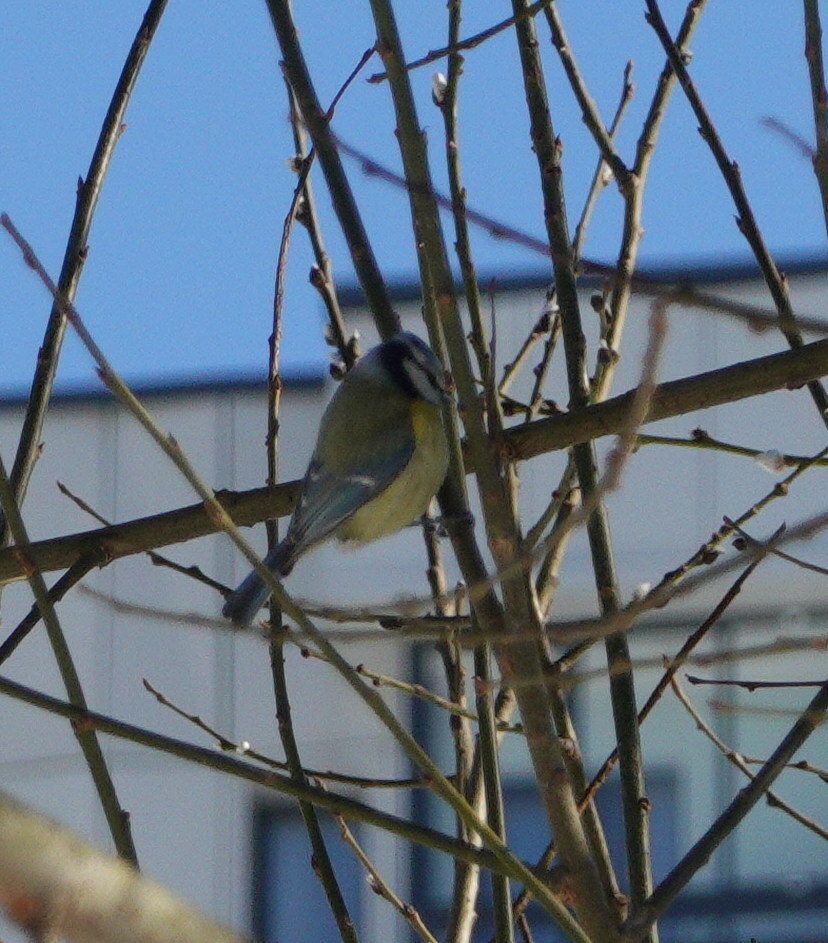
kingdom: Animalia
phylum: Chordata
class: Aves
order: Passeriformes
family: Paridae
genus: Cyanistes
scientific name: Cyanistes caeruleus
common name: Eurasian blue tit
